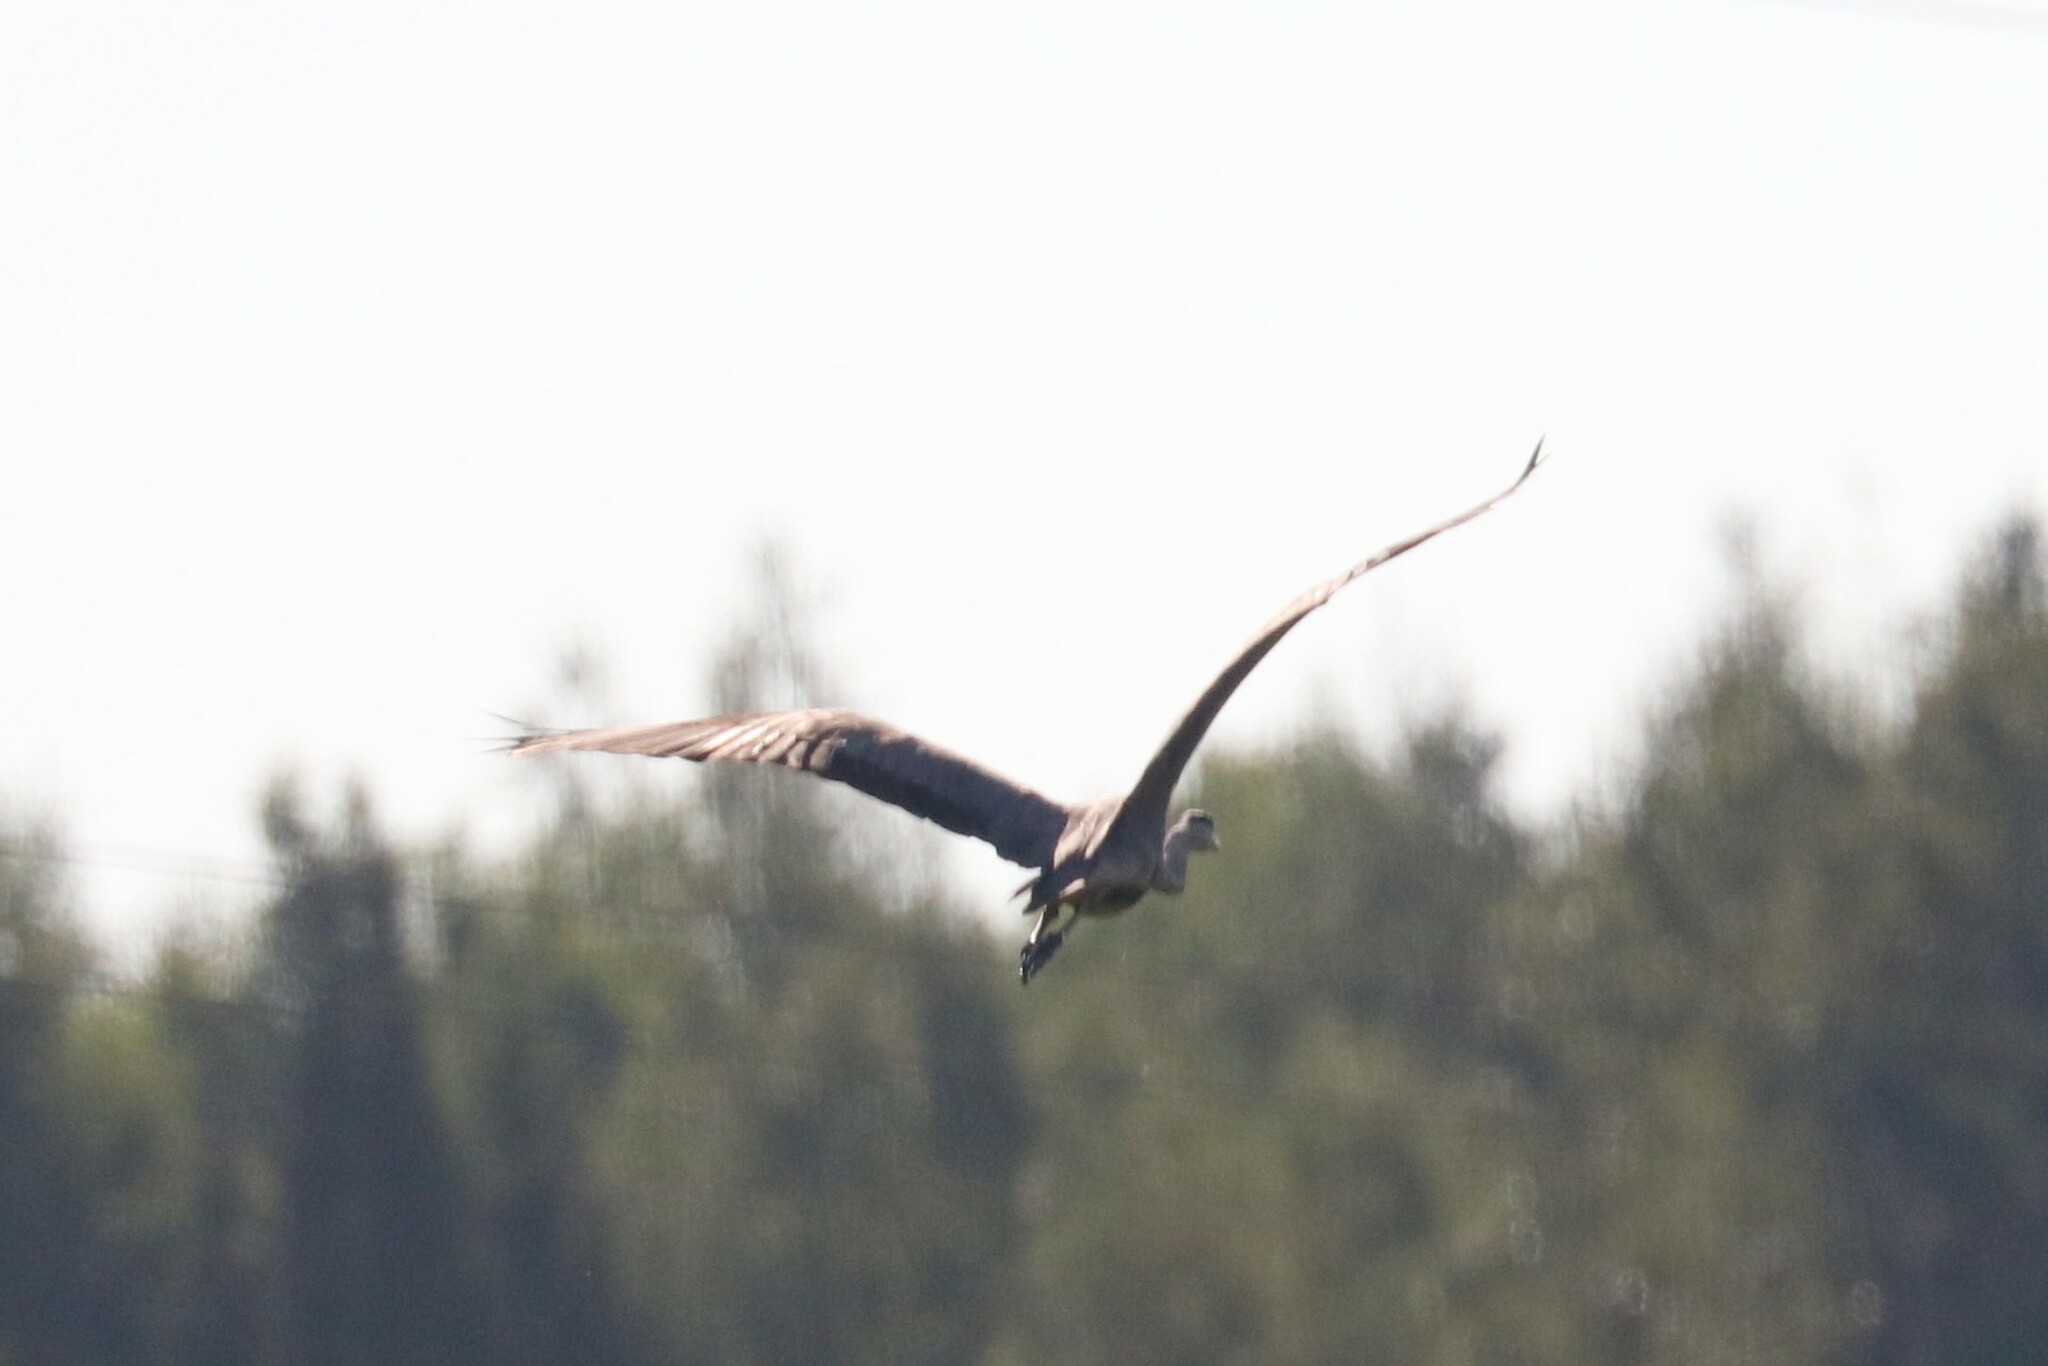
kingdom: Animalia
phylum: Chordata
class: Aves
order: Pelecaniformes
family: Ardeidae
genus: Ardea
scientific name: Ardea cinerea
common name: Grey heron
